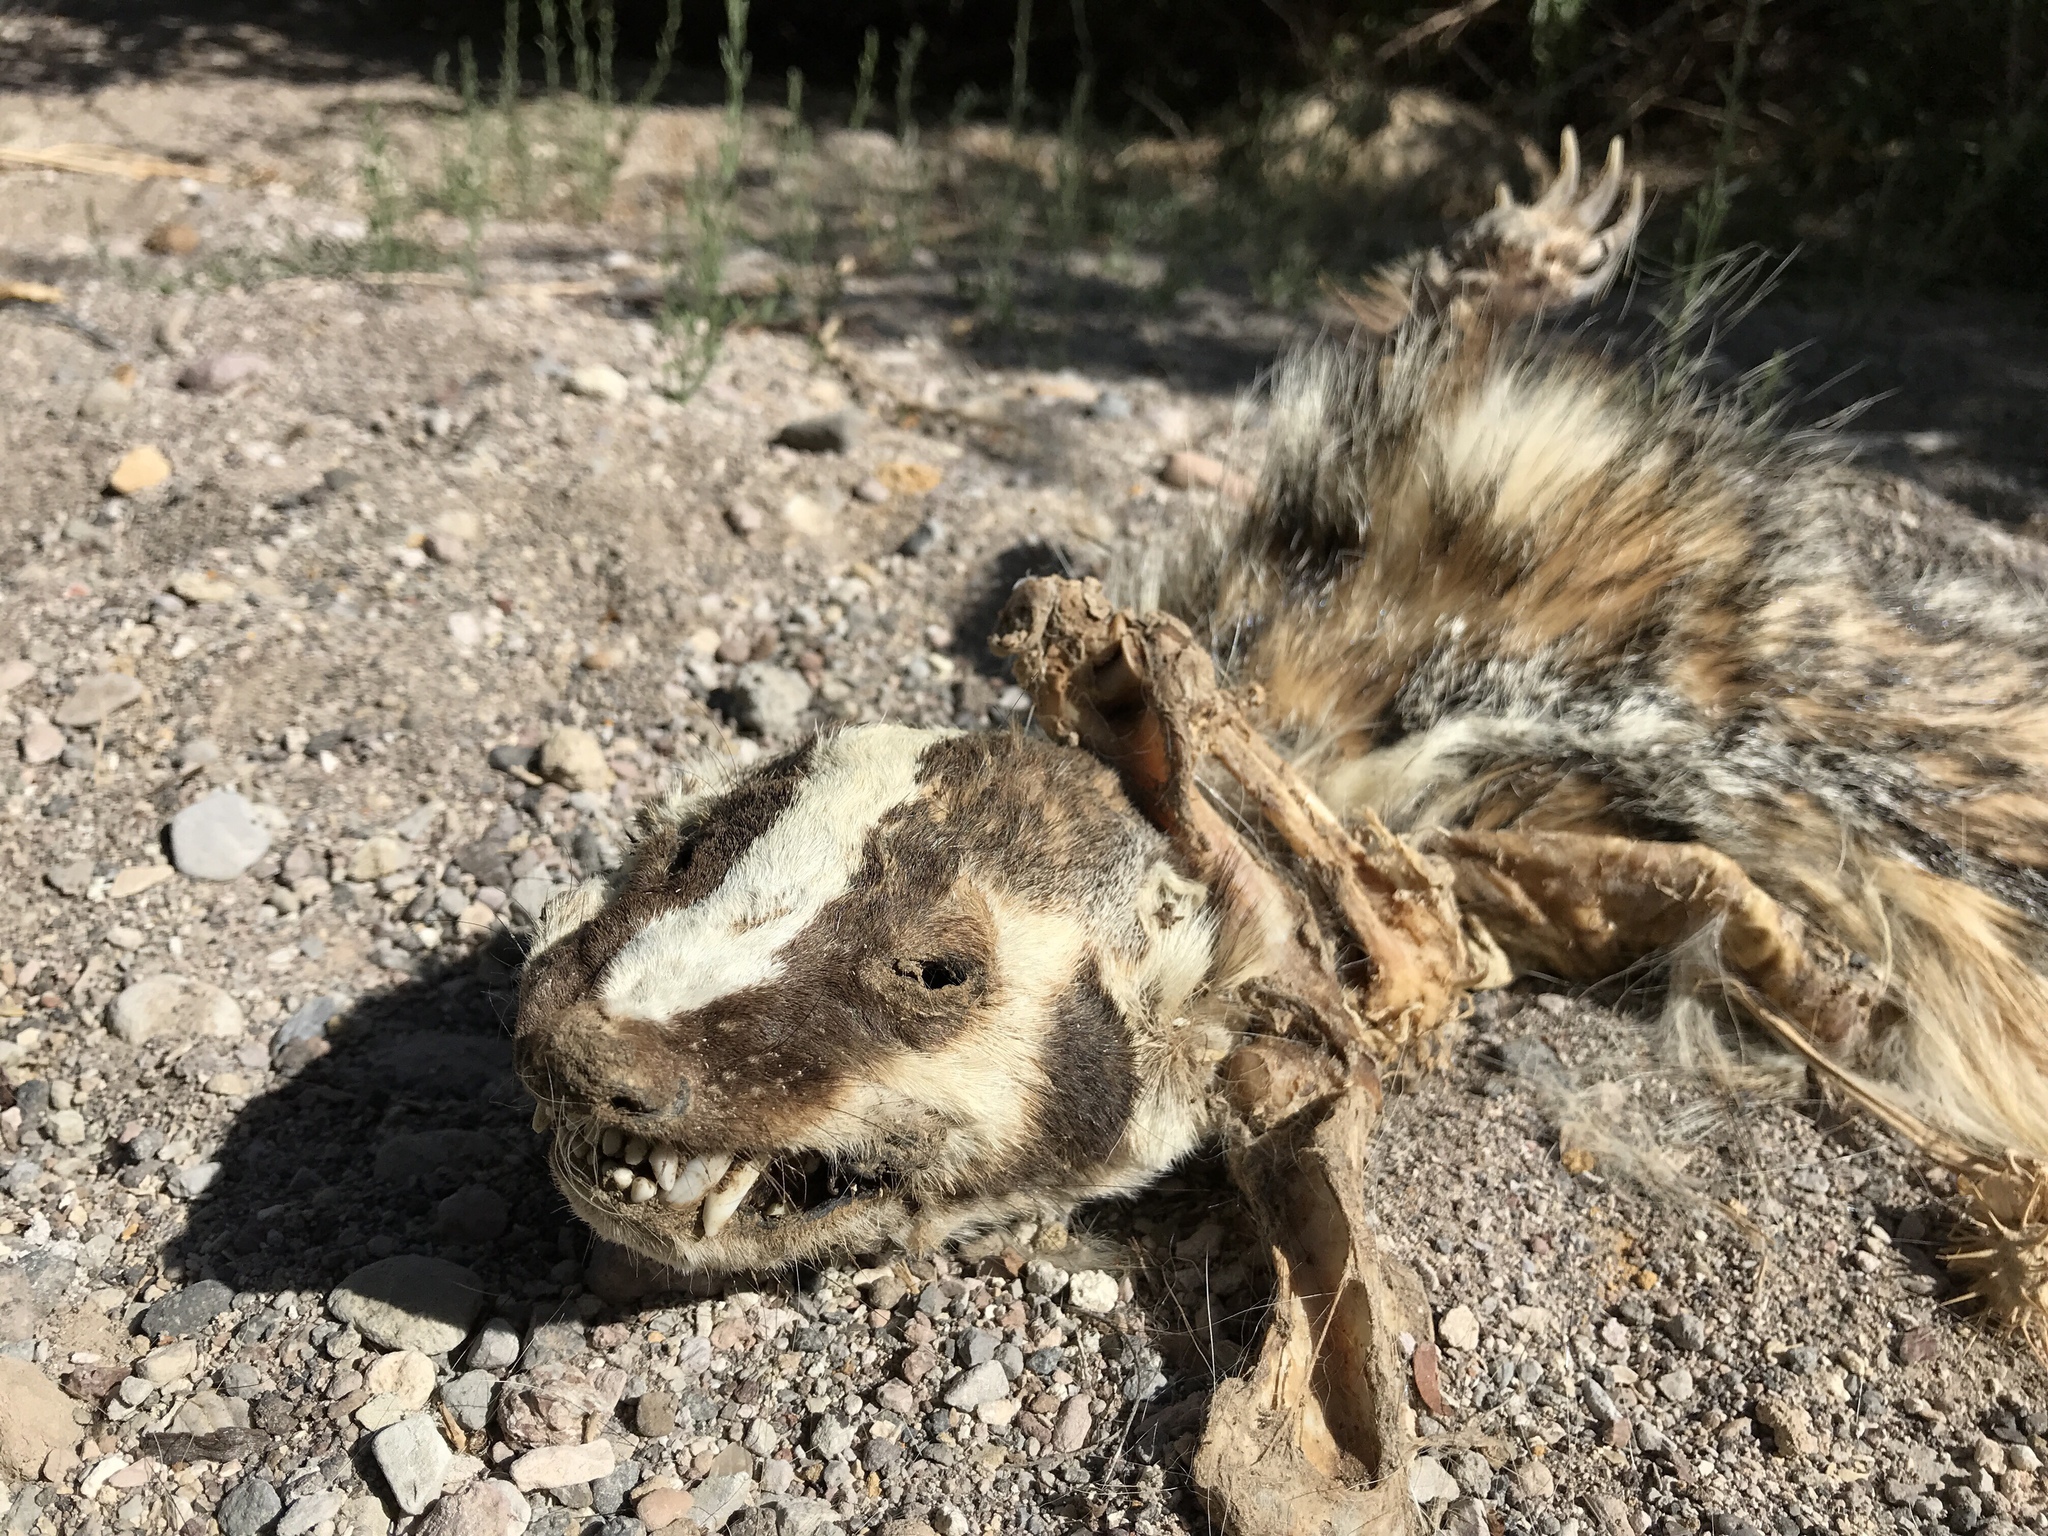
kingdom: Animalia
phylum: Chordata
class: Mammalia
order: Carnivora
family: Mustelidae
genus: Taxidea
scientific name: Taxidea taxus
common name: American badger
